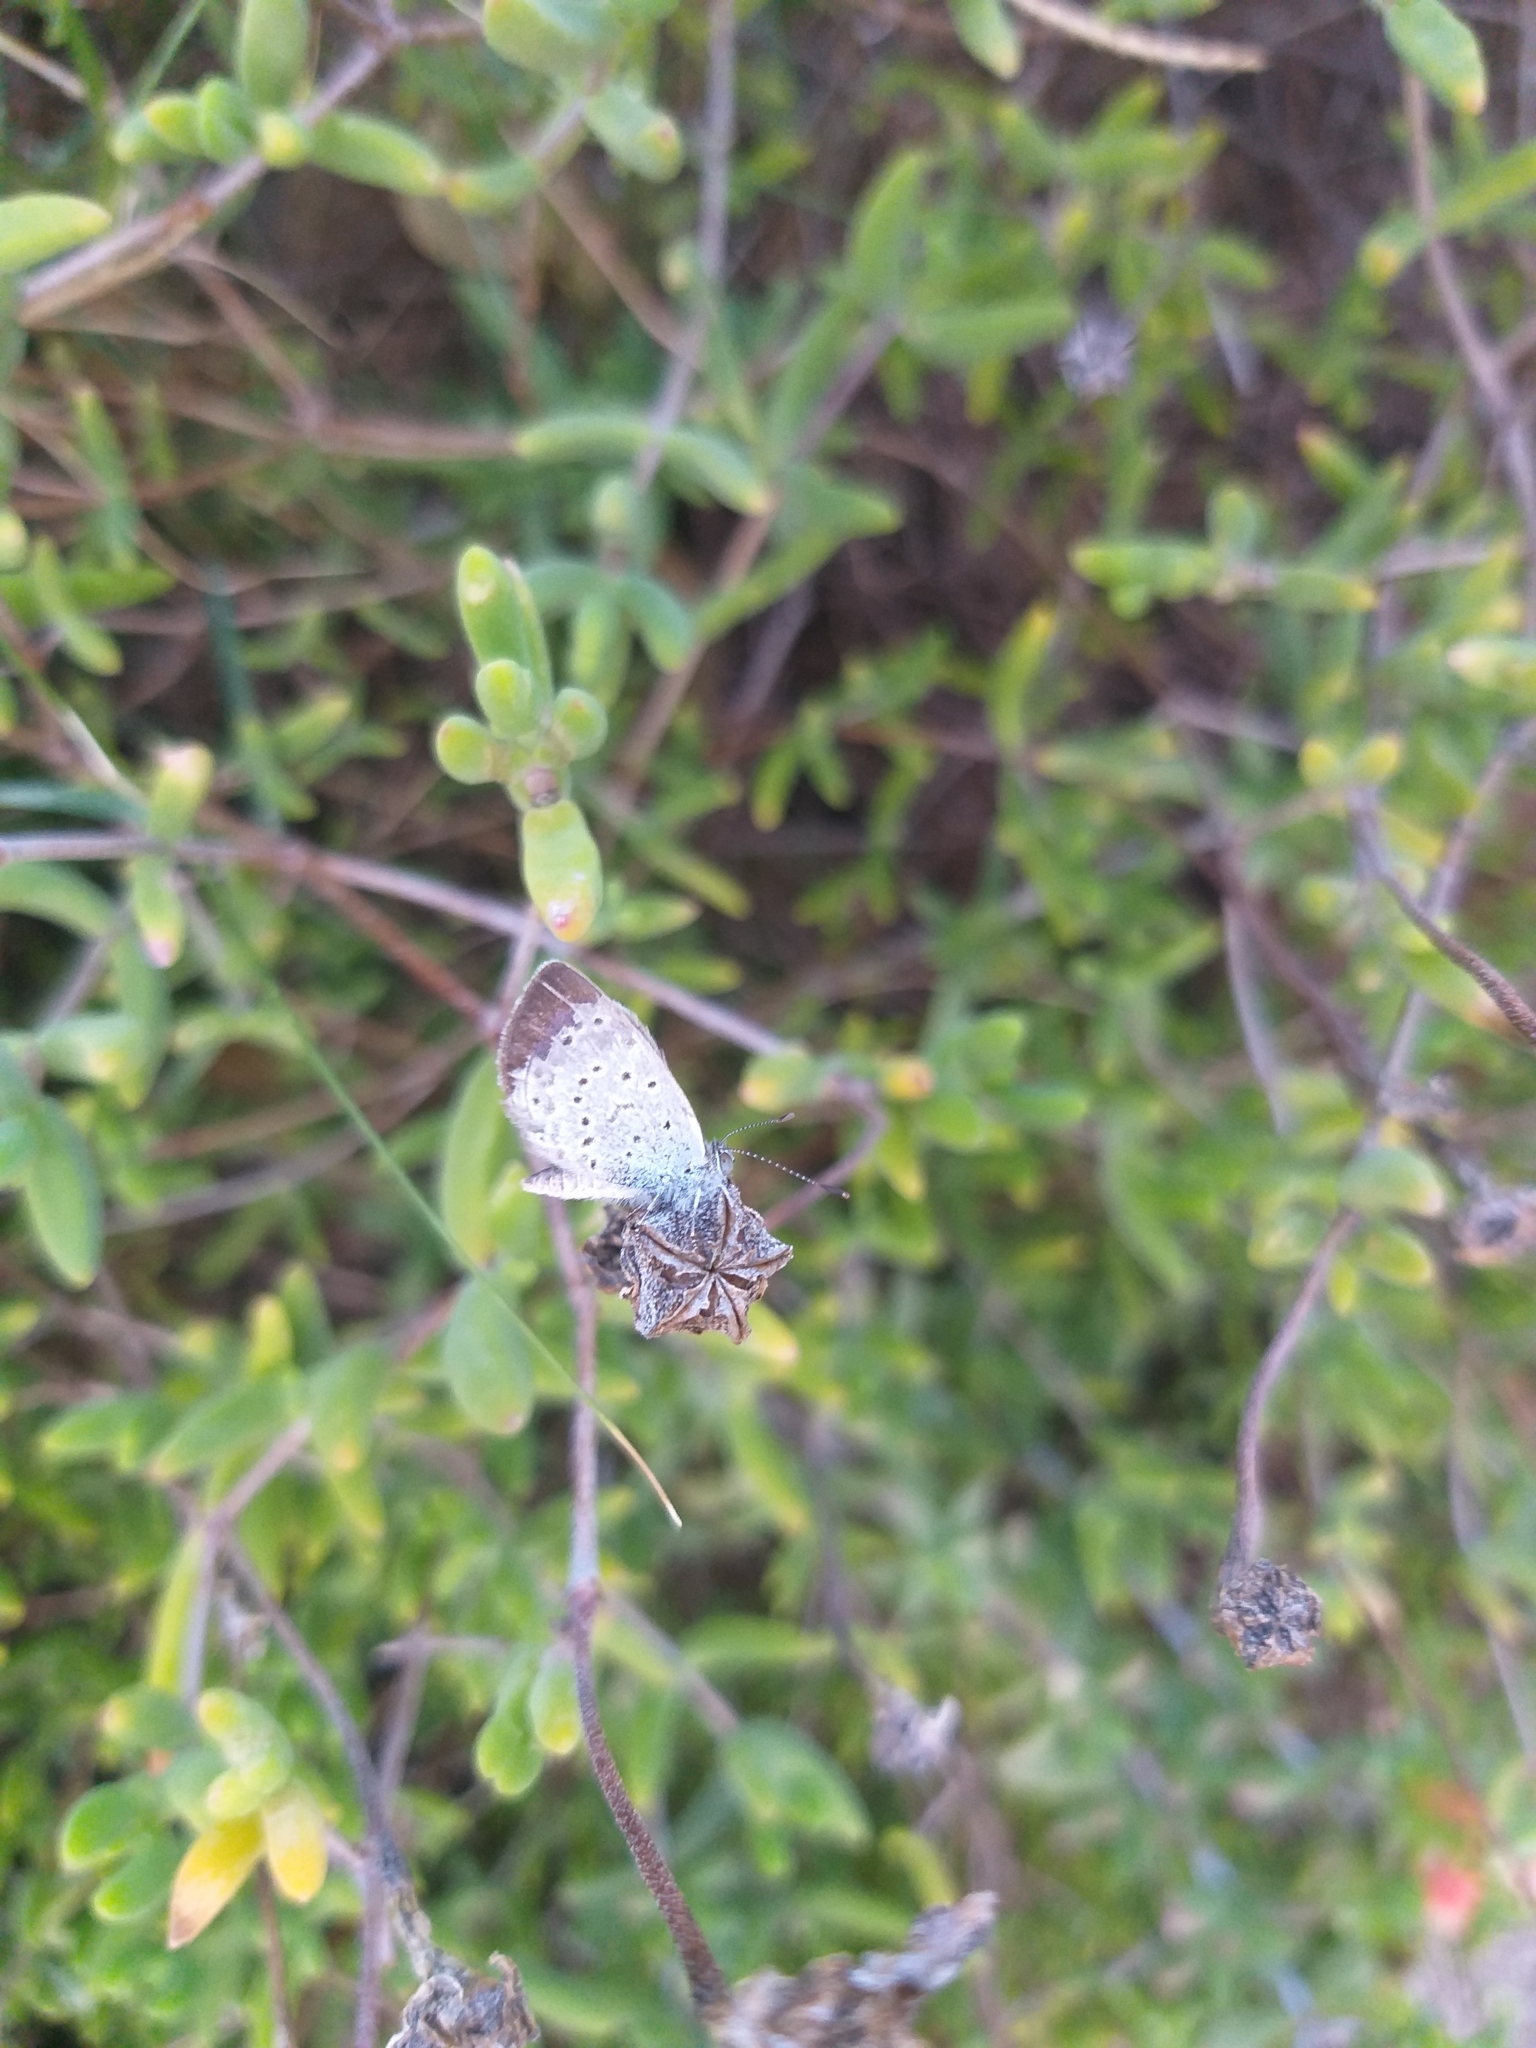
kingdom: Animalia
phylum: Arthropoda
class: Insecta
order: Lepidoptera
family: Lycaenidae
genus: Zizeeria
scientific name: Zizeeria knysna
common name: African grass blue
